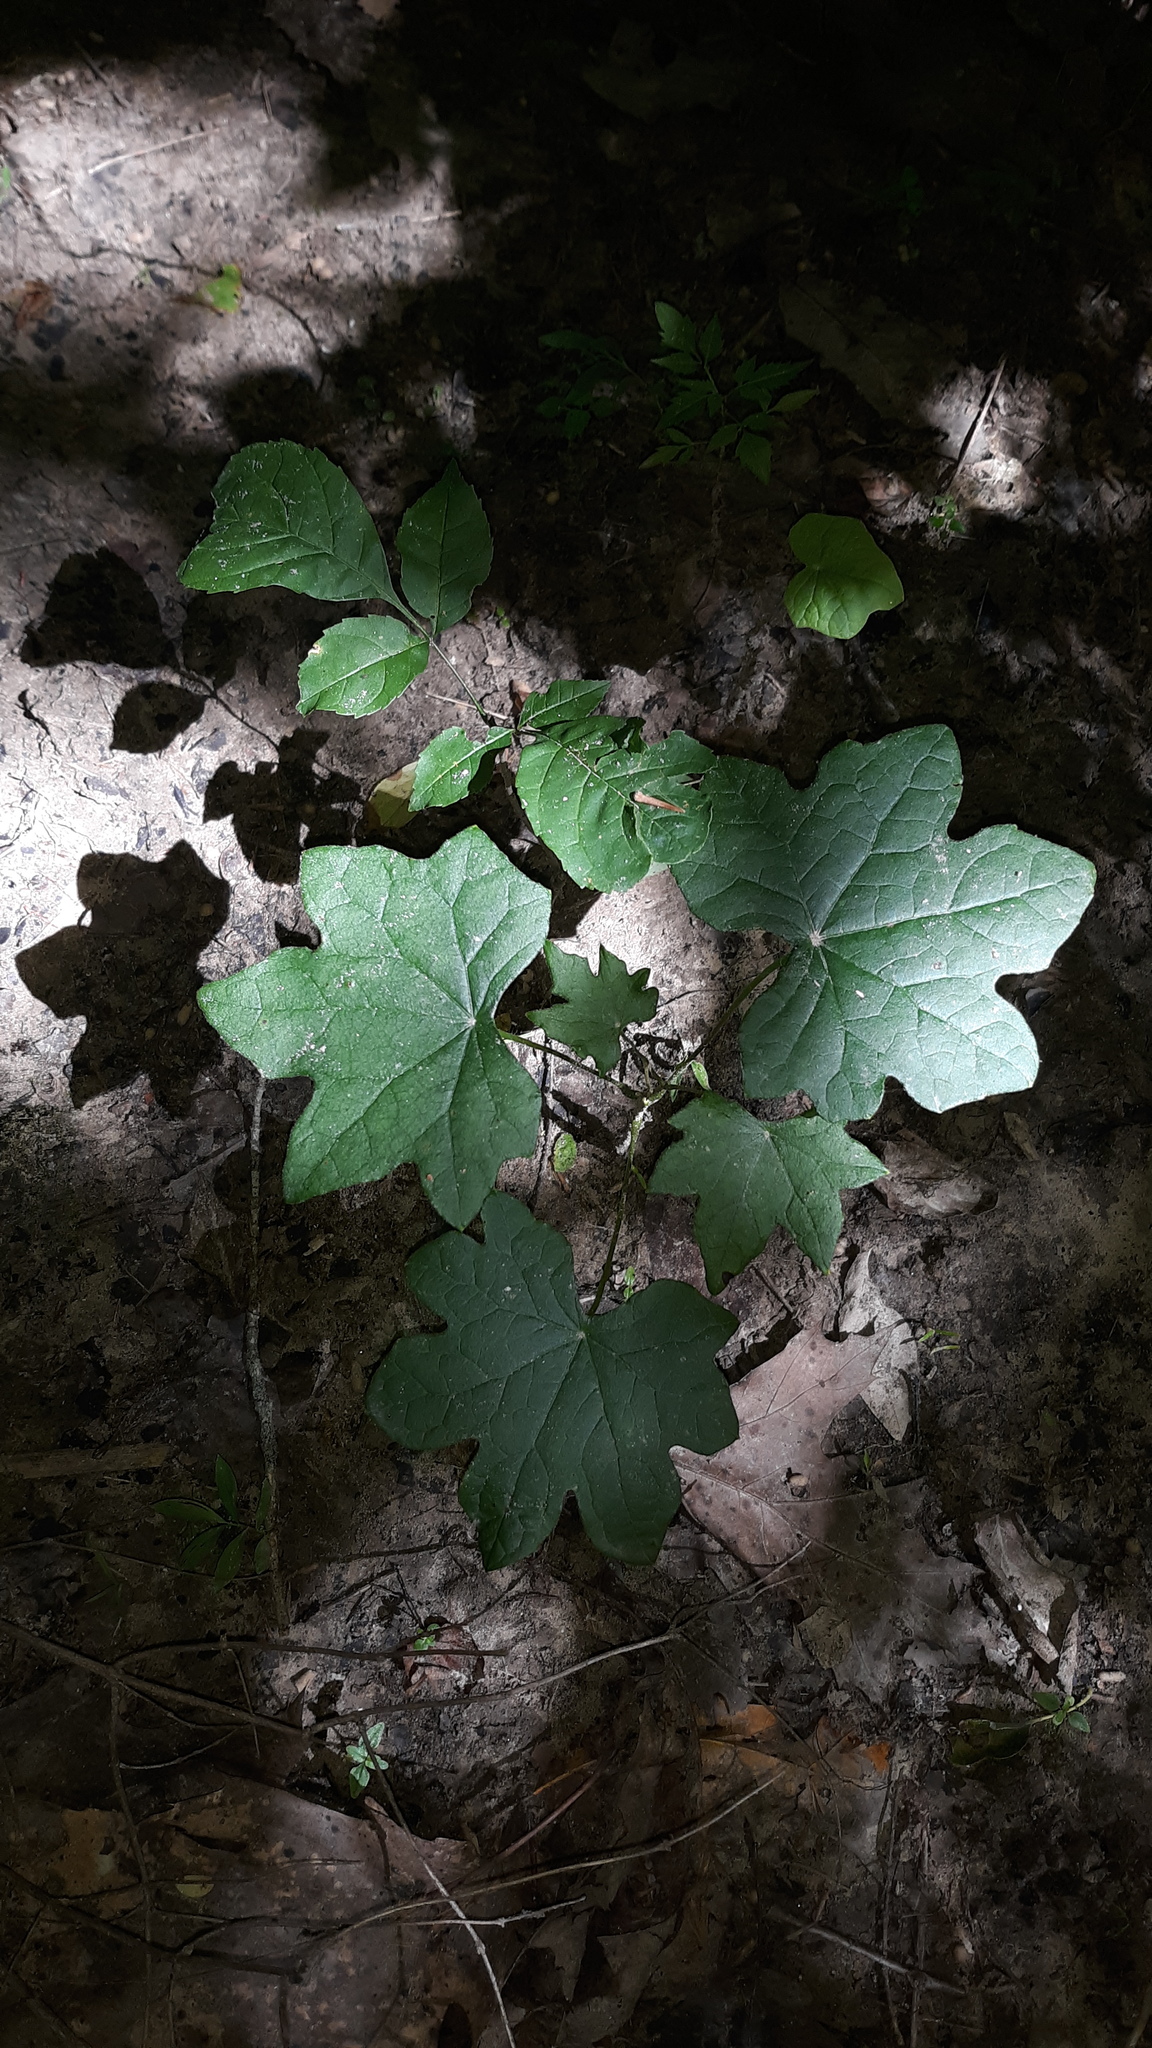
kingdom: Plantae
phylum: Tracheophyta
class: Magnoliopsida
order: Ranunculales
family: Menispermaceae
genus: Menispermum
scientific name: Menispermum canadense
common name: Moonseed
